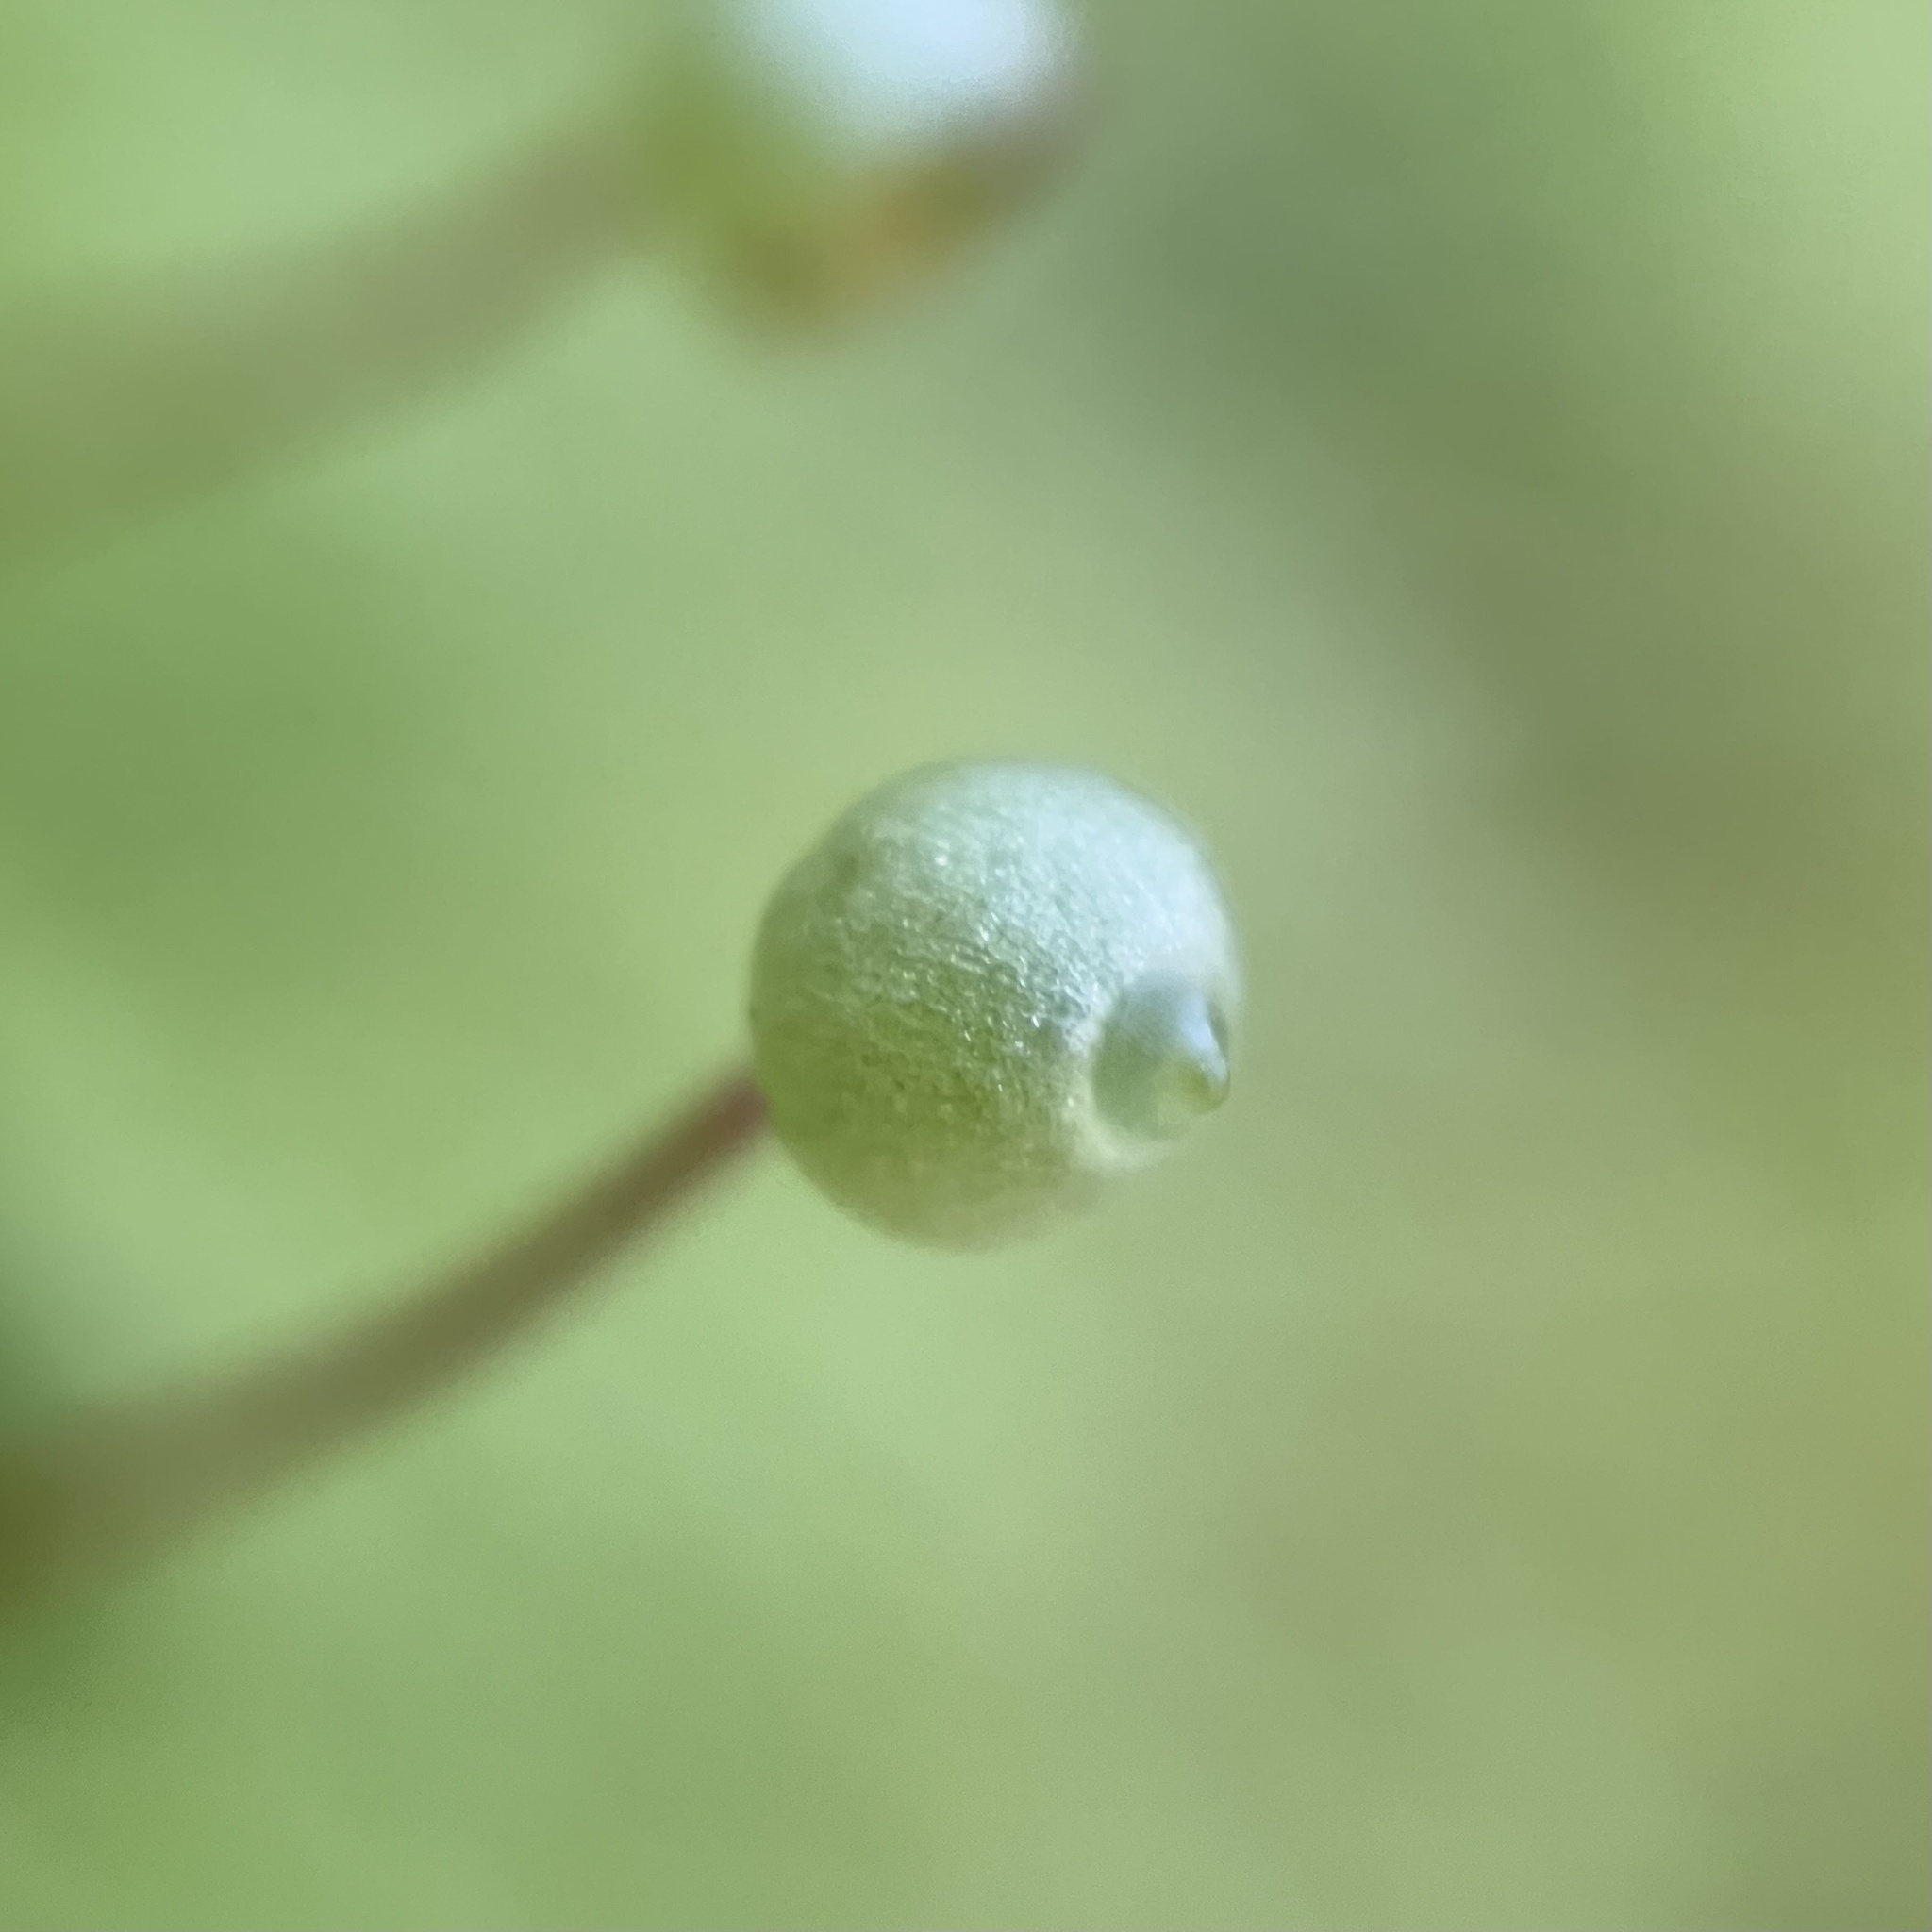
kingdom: Plantae
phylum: Bryophyta
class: Bryopsida
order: Bartramiales
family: Bartramiaceae
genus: Bartramia
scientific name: Bartramia ithyphylla
